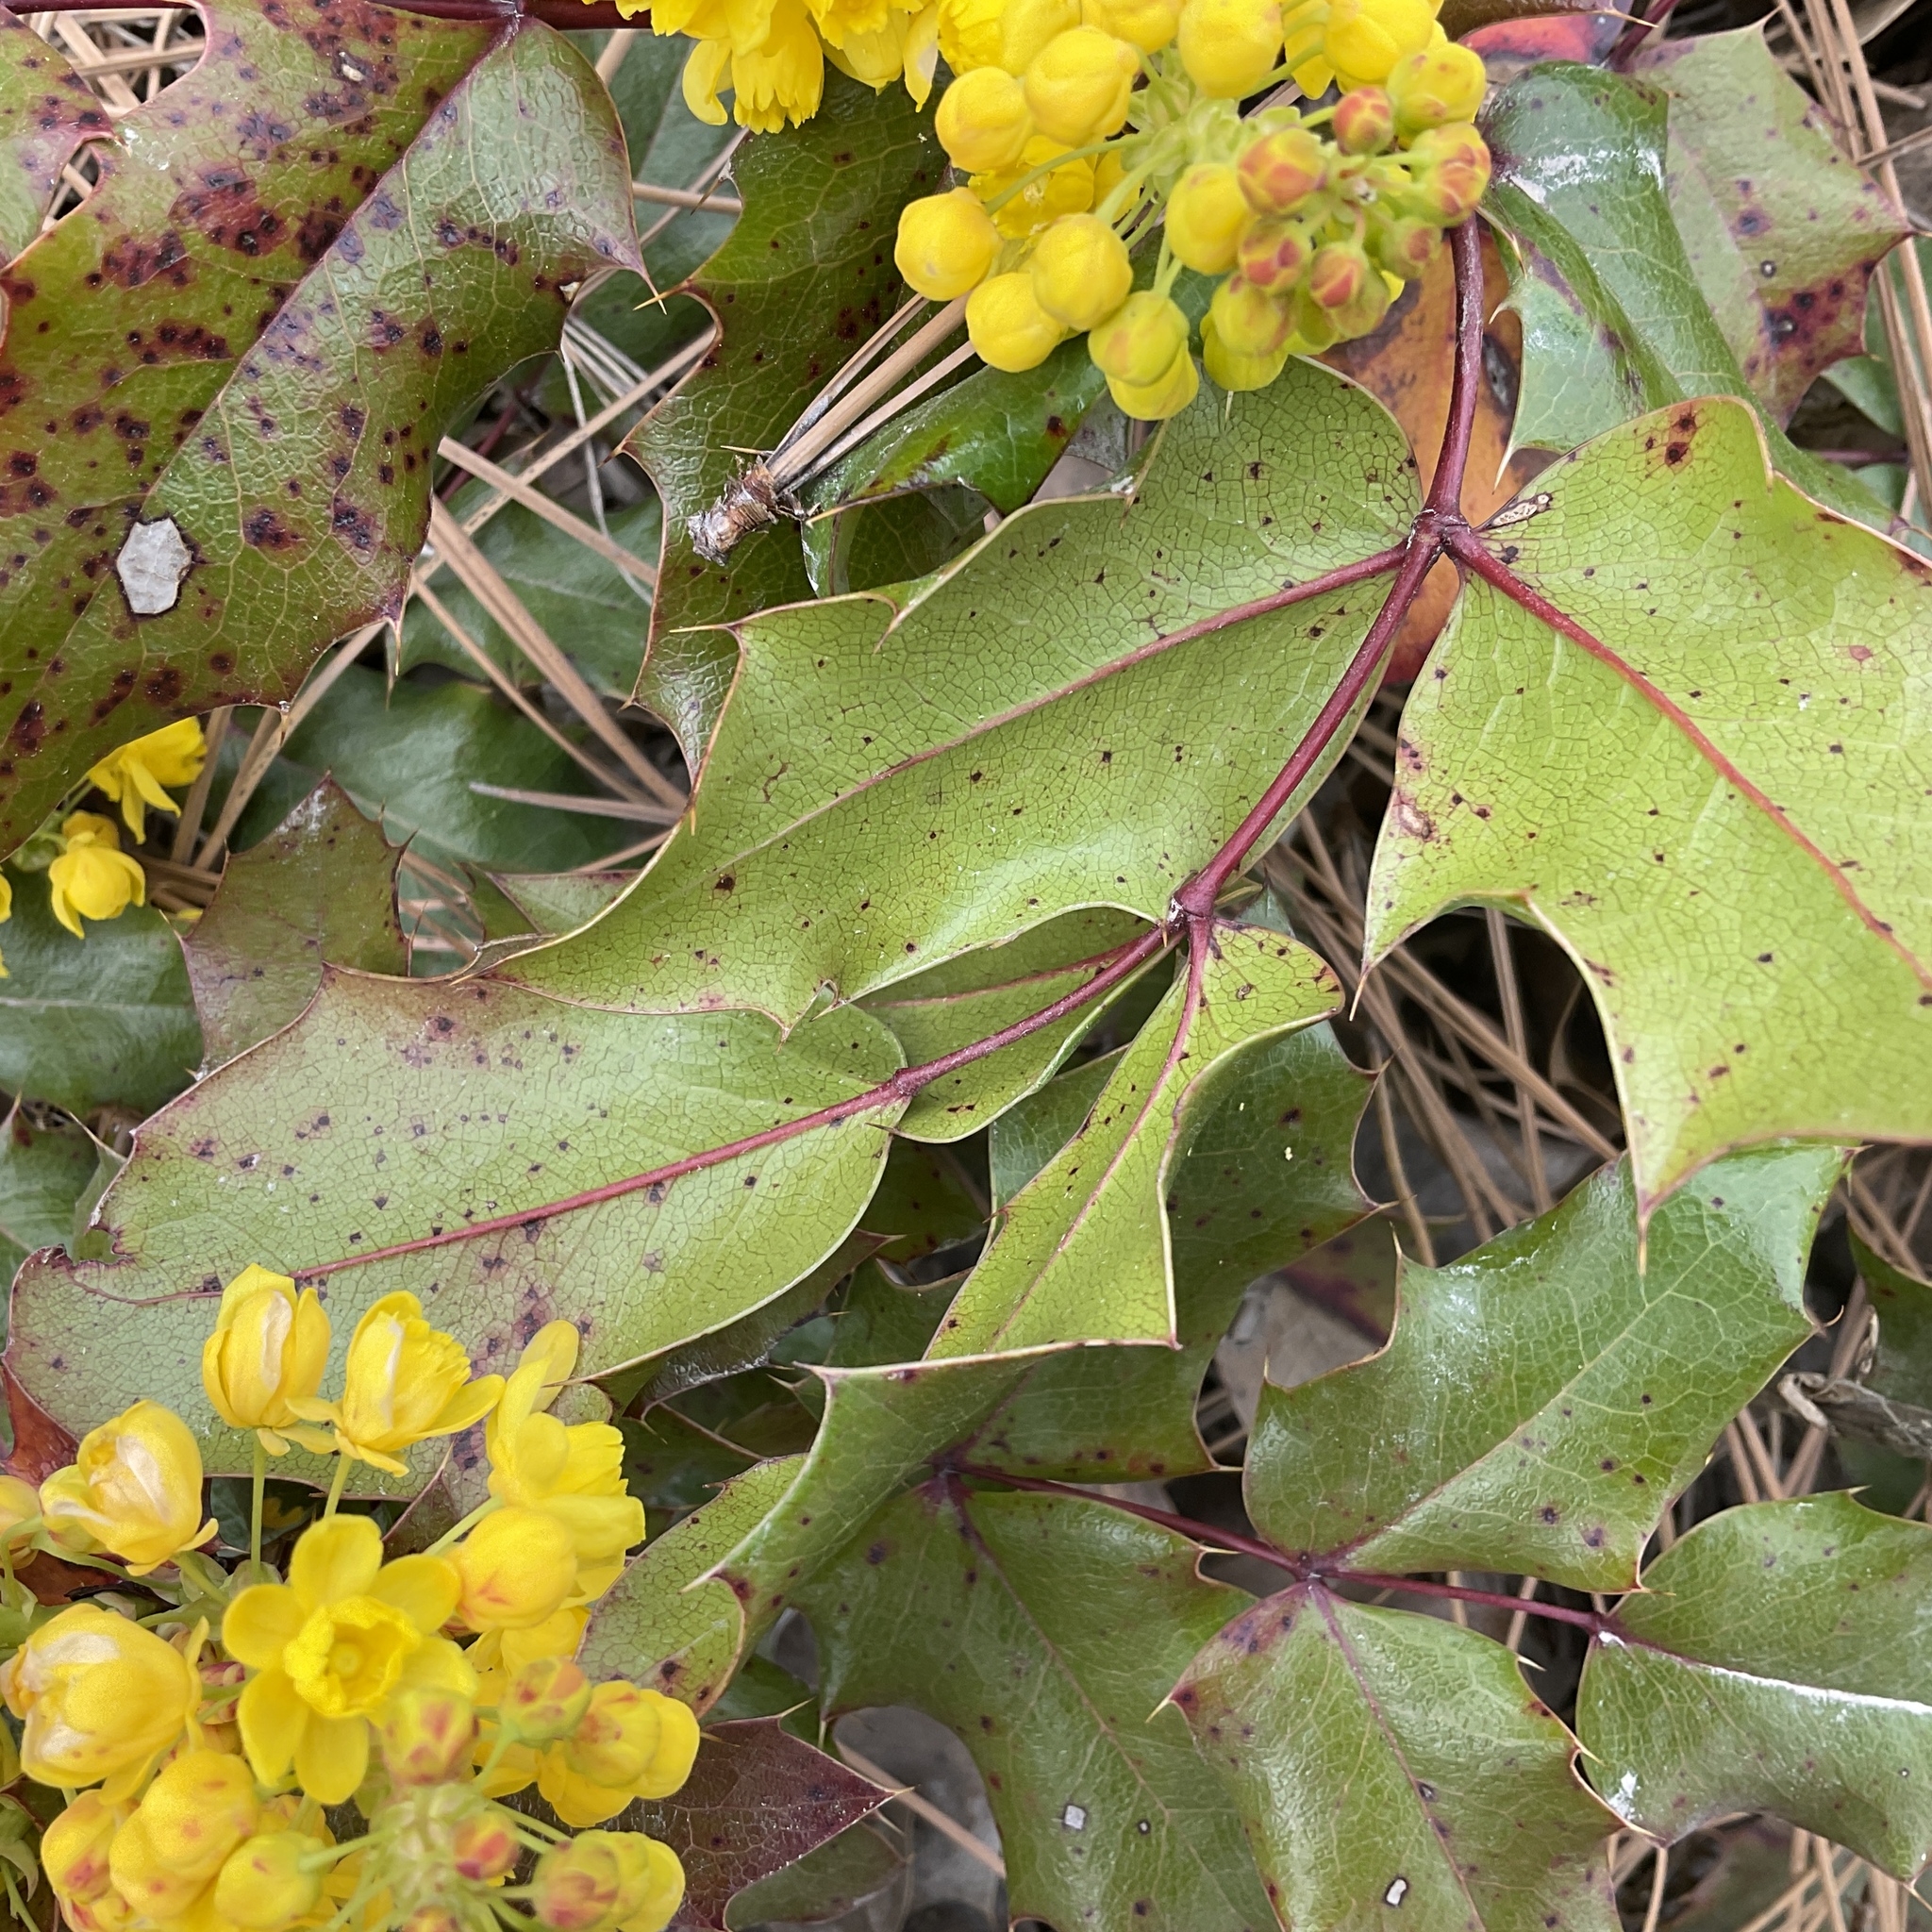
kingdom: Plantae
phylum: Tracheophyta
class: Magnoliopsida
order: Ranunculales
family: Berberidaceae
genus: Mahonia
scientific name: Mahonia aquifolium
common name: Oregon-grape
